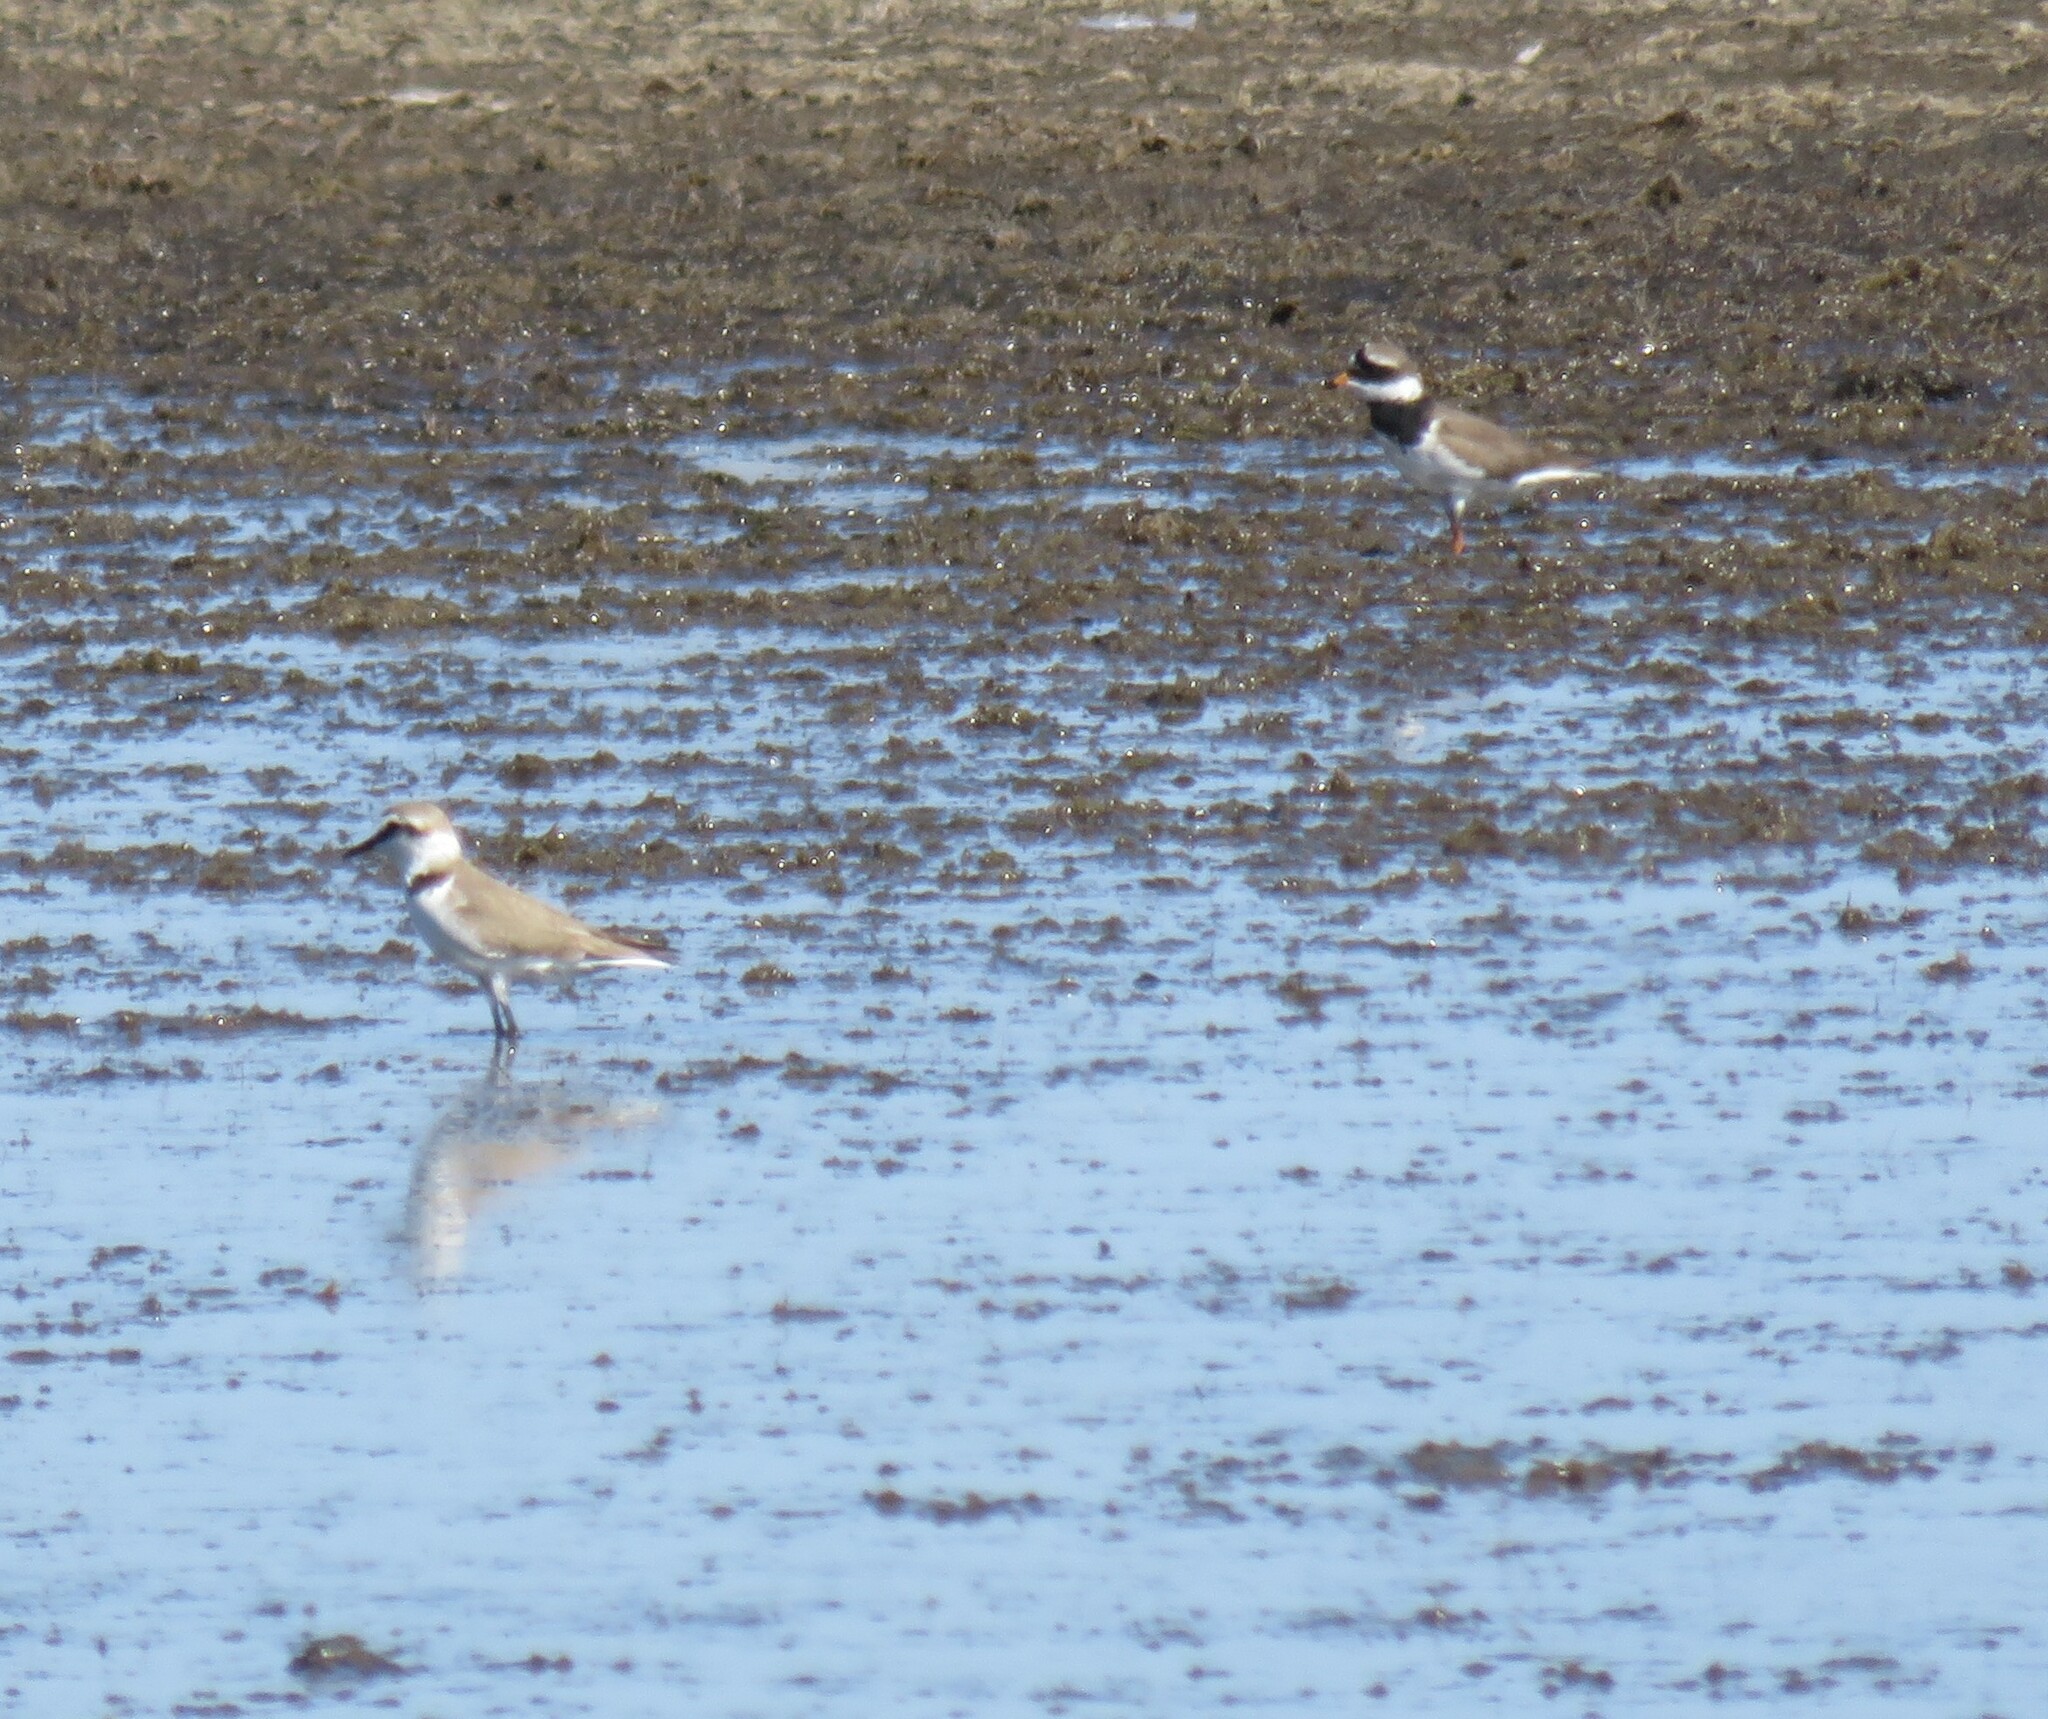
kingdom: Animalia
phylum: Chordata
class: Aves
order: Charadriiformes
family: Charadriidae
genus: Charadrius
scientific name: Charadrius alexandrinus
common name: Kentish plover
